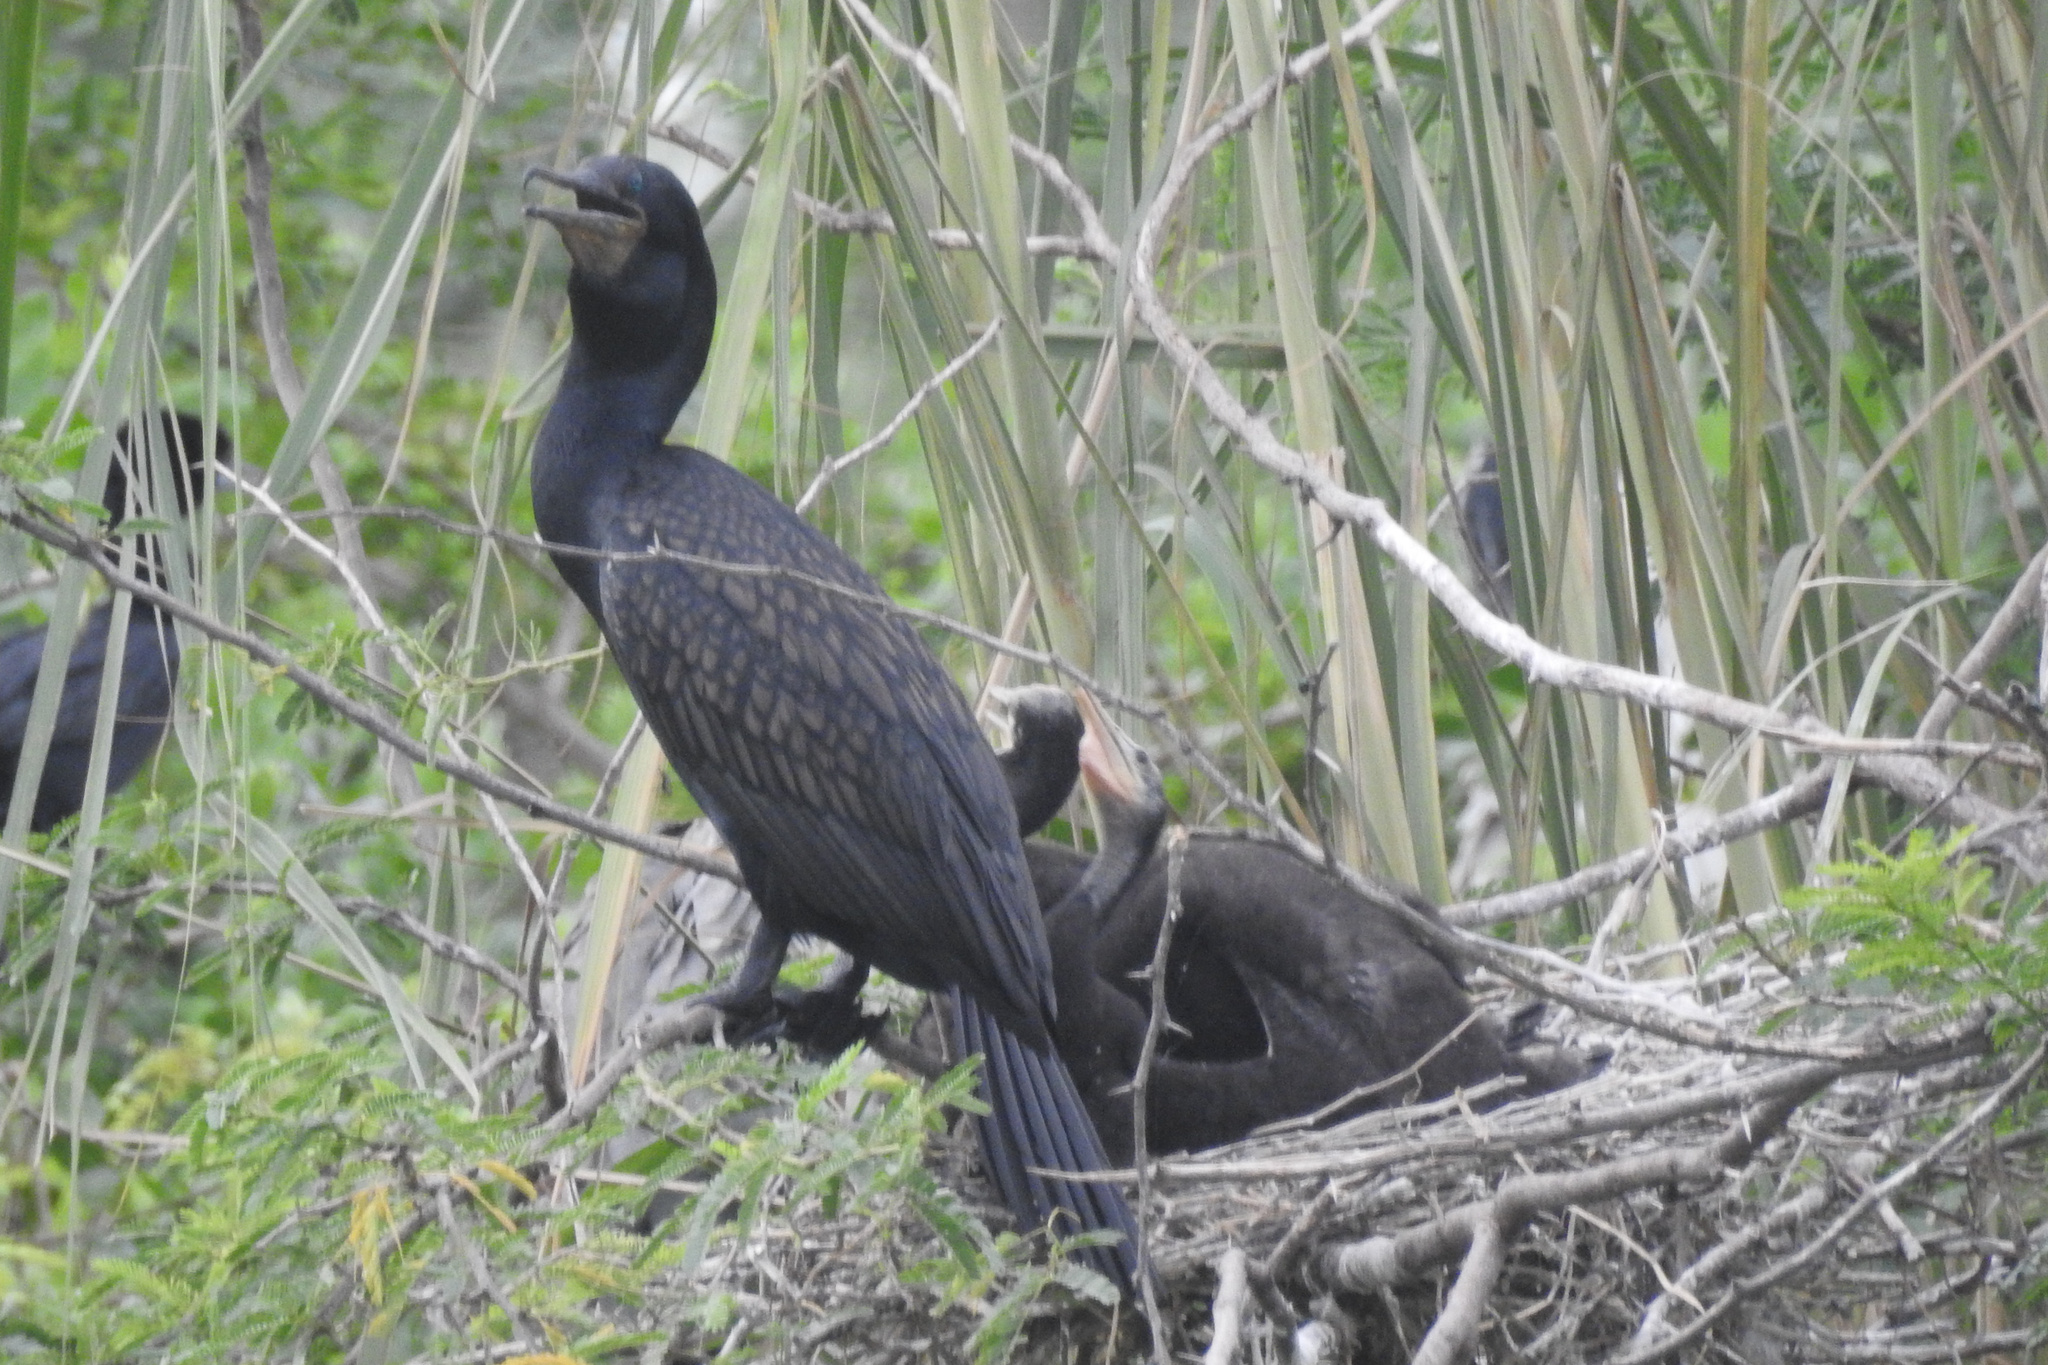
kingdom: Animalia
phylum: Chordata
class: Aves
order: Suliformes
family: Phalacrocoracidae
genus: Phalacrocorax
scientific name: Phalacrocorax fuscicollis
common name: Indian cormorant
